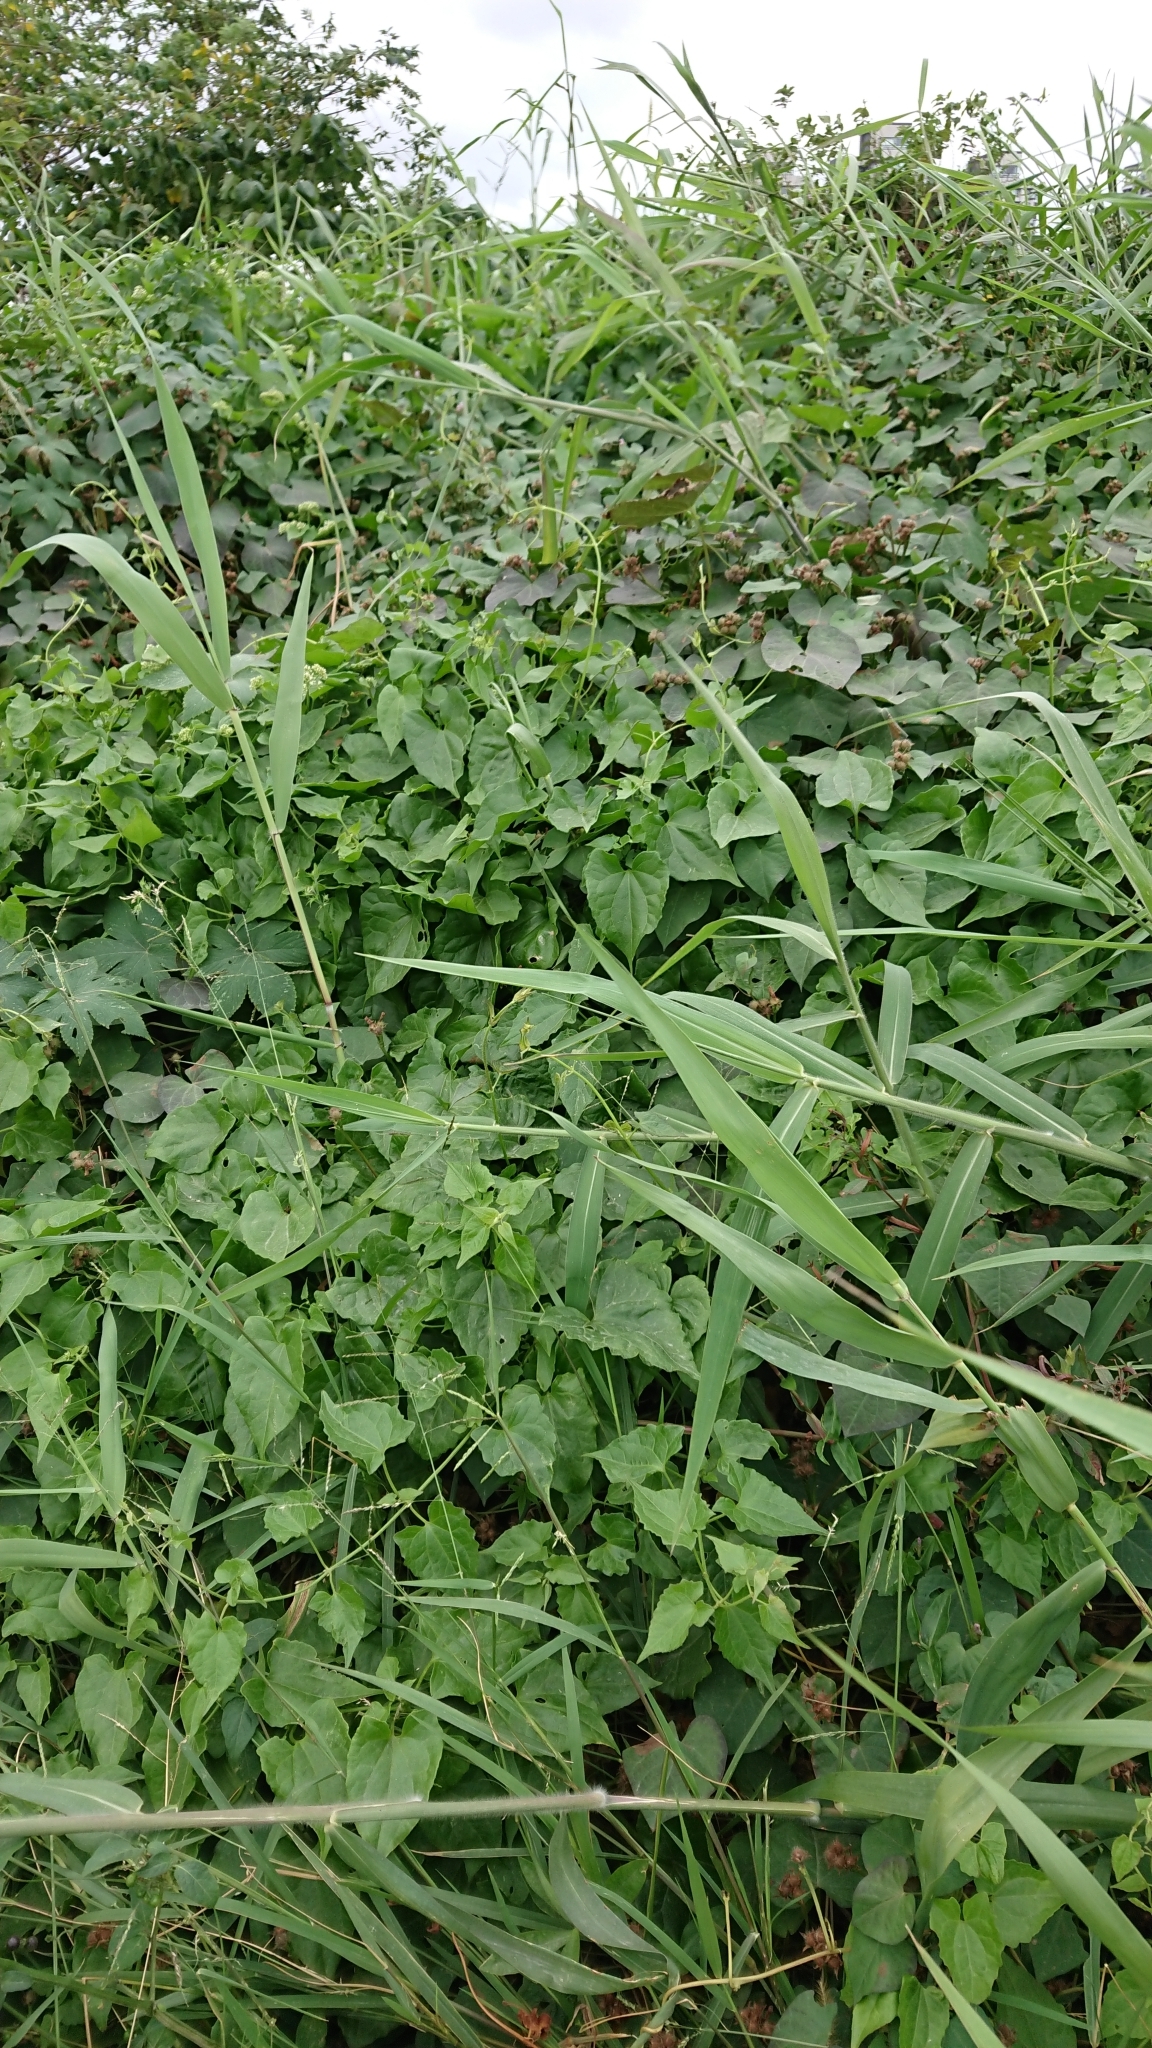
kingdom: Plantae
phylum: Tracheophyta
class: Magnoliopsida
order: Asterales
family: Asteraceae
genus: Mikania
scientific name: Mikania micrantha
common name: Mile-a-minute
